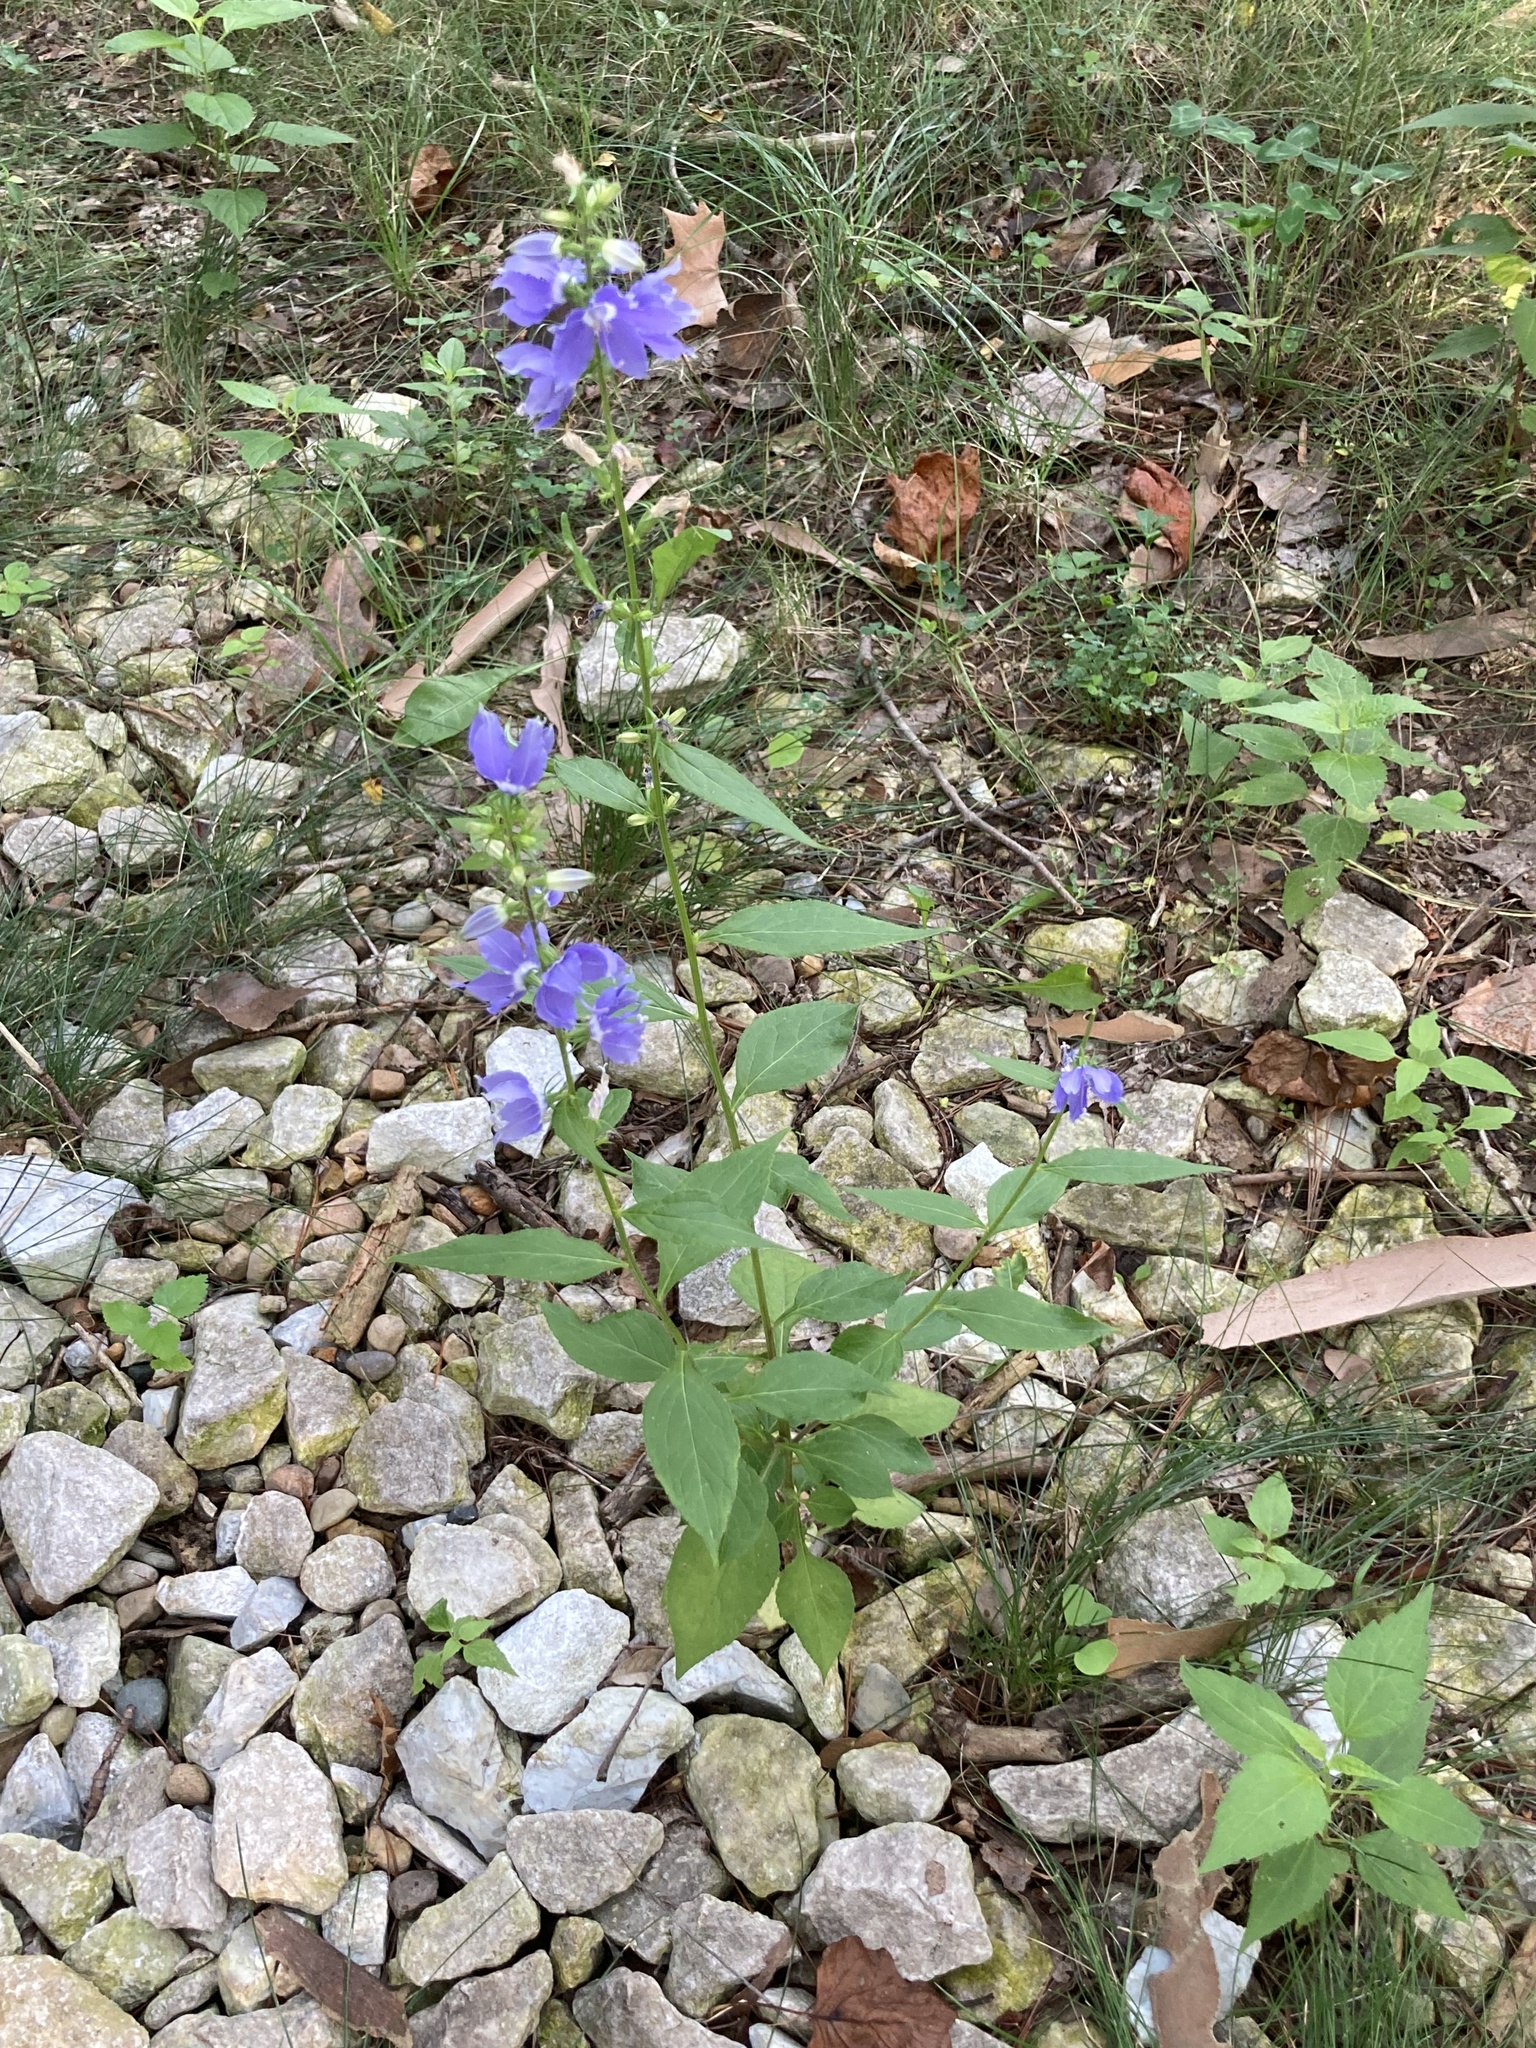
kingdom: Plantae
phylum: Tracheophyta
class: Magnoliopsida
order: Asterales
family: Campanulaceae
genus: Campanulastrum
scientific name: Campanulastrum americanum
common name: American bellflower
